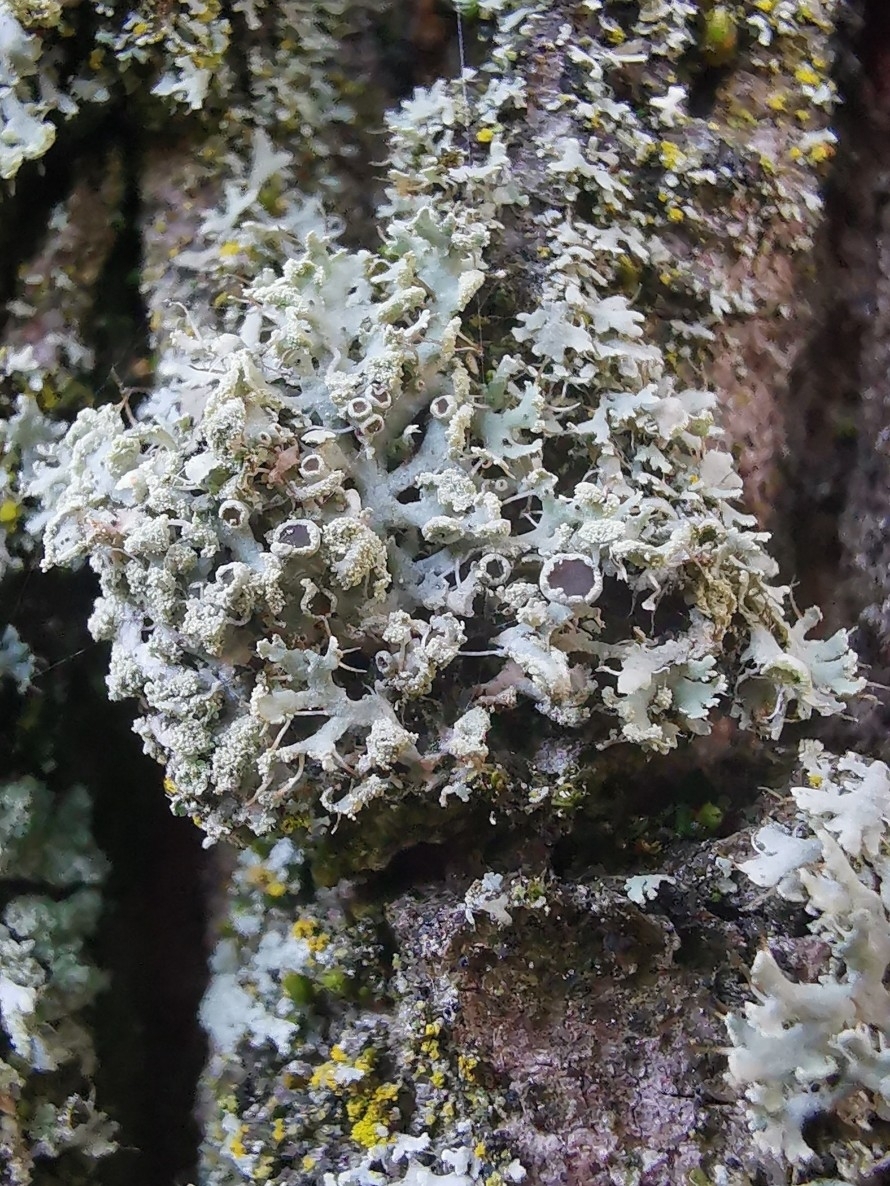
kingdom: Fungi
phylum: Ascomycota
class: Lecanoromycetes
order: Caliciales
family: Physciaceae
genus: Physcia
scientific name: Physcia tenella
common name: Fringed rosette lichen
